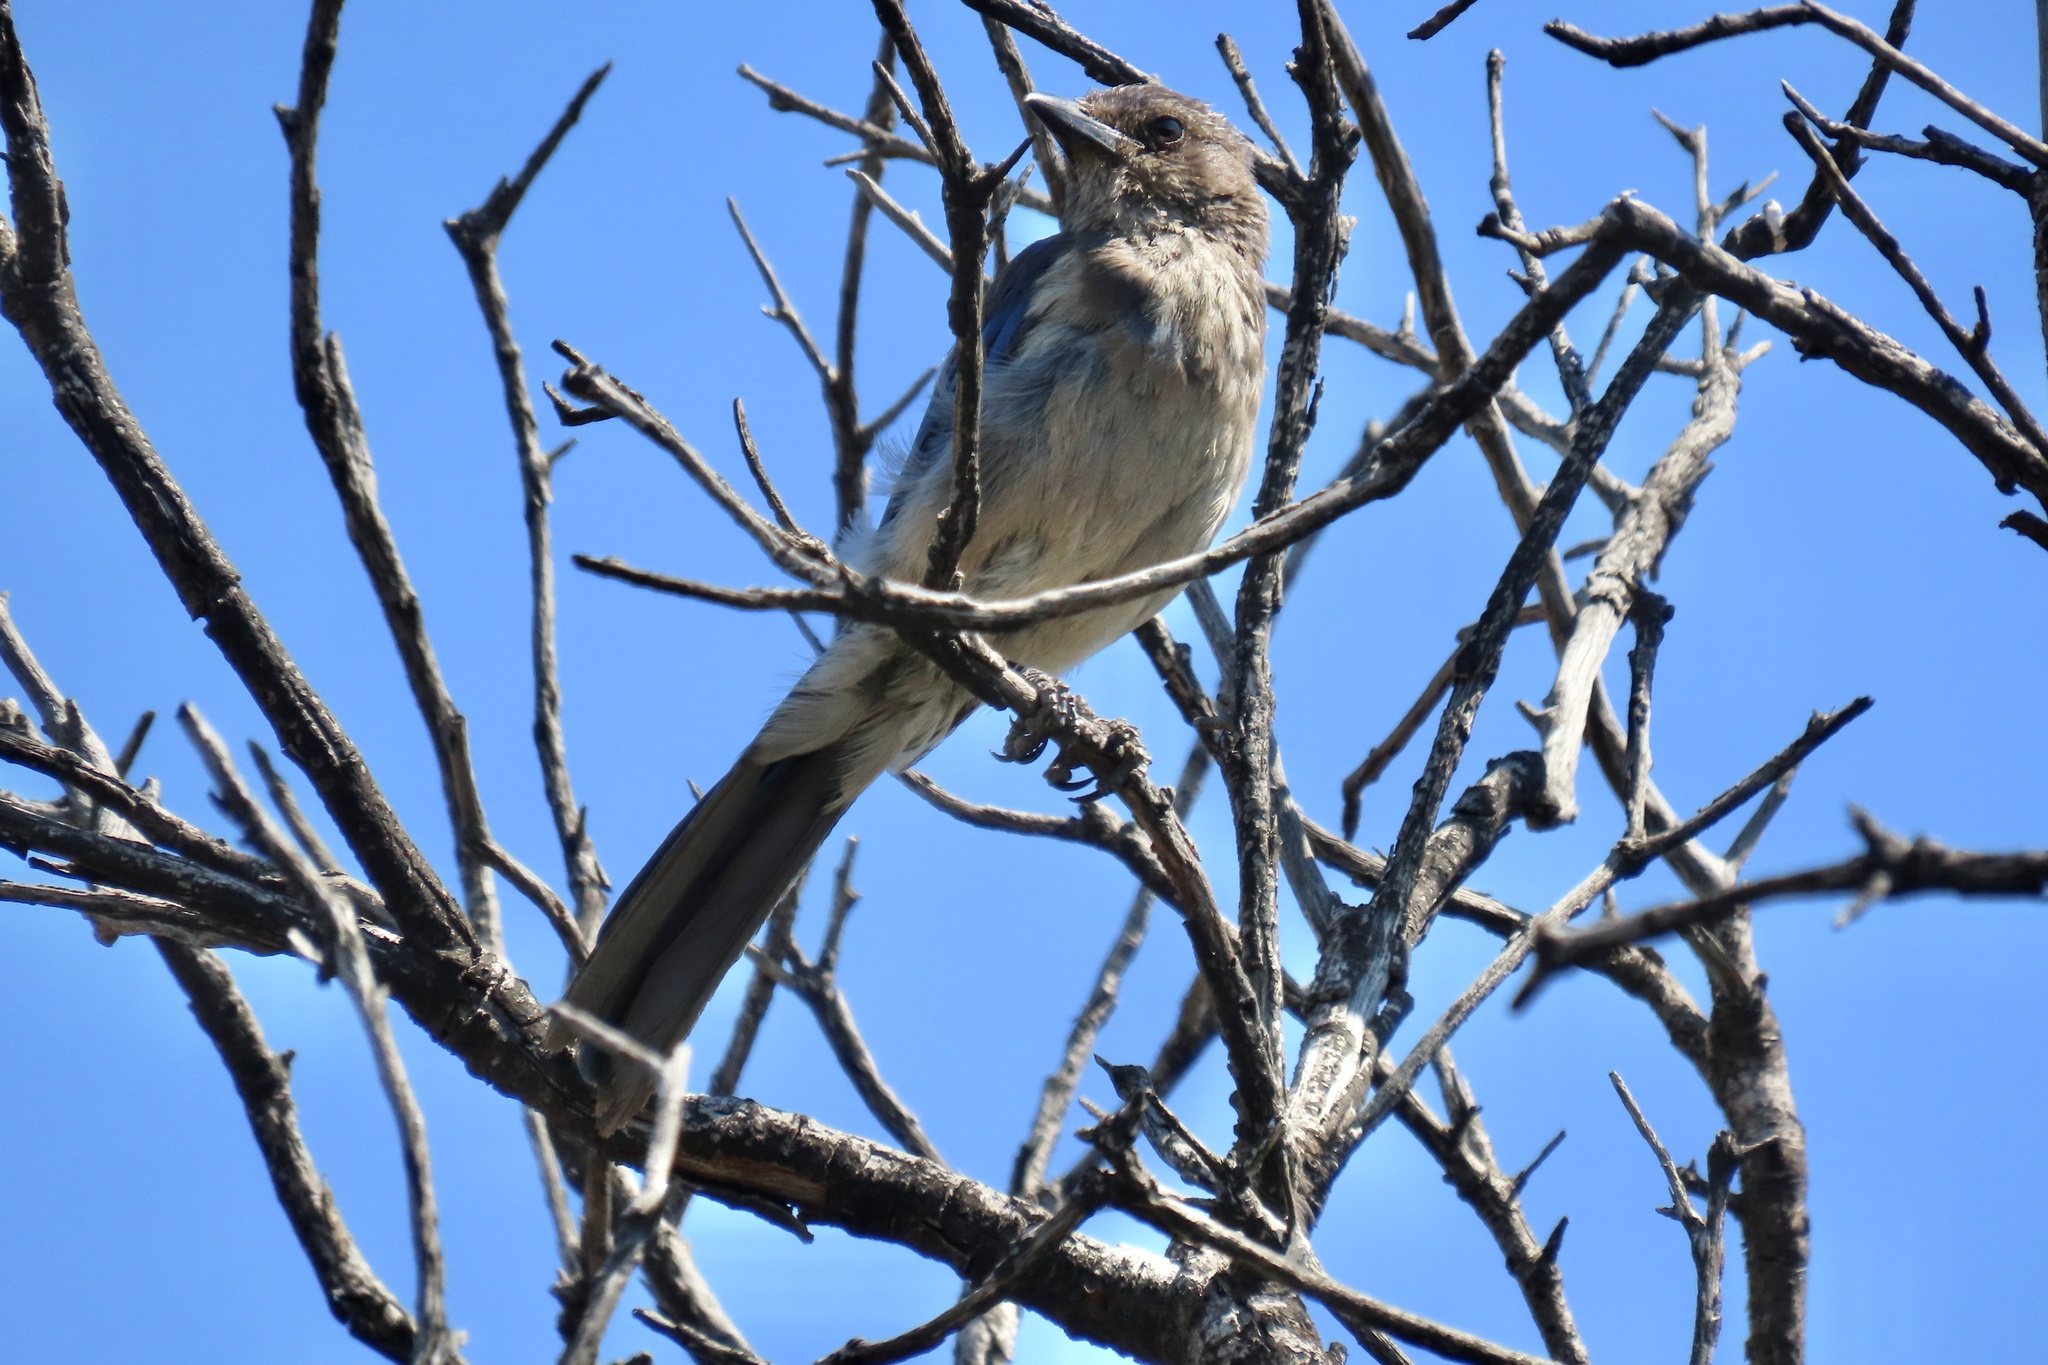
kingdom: Animalia
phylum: Chordata
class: Aves
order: Passeriformes
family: Corvidae
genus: Aphelocoma
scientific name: Aphelocoma californica
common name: California scrub-jay
